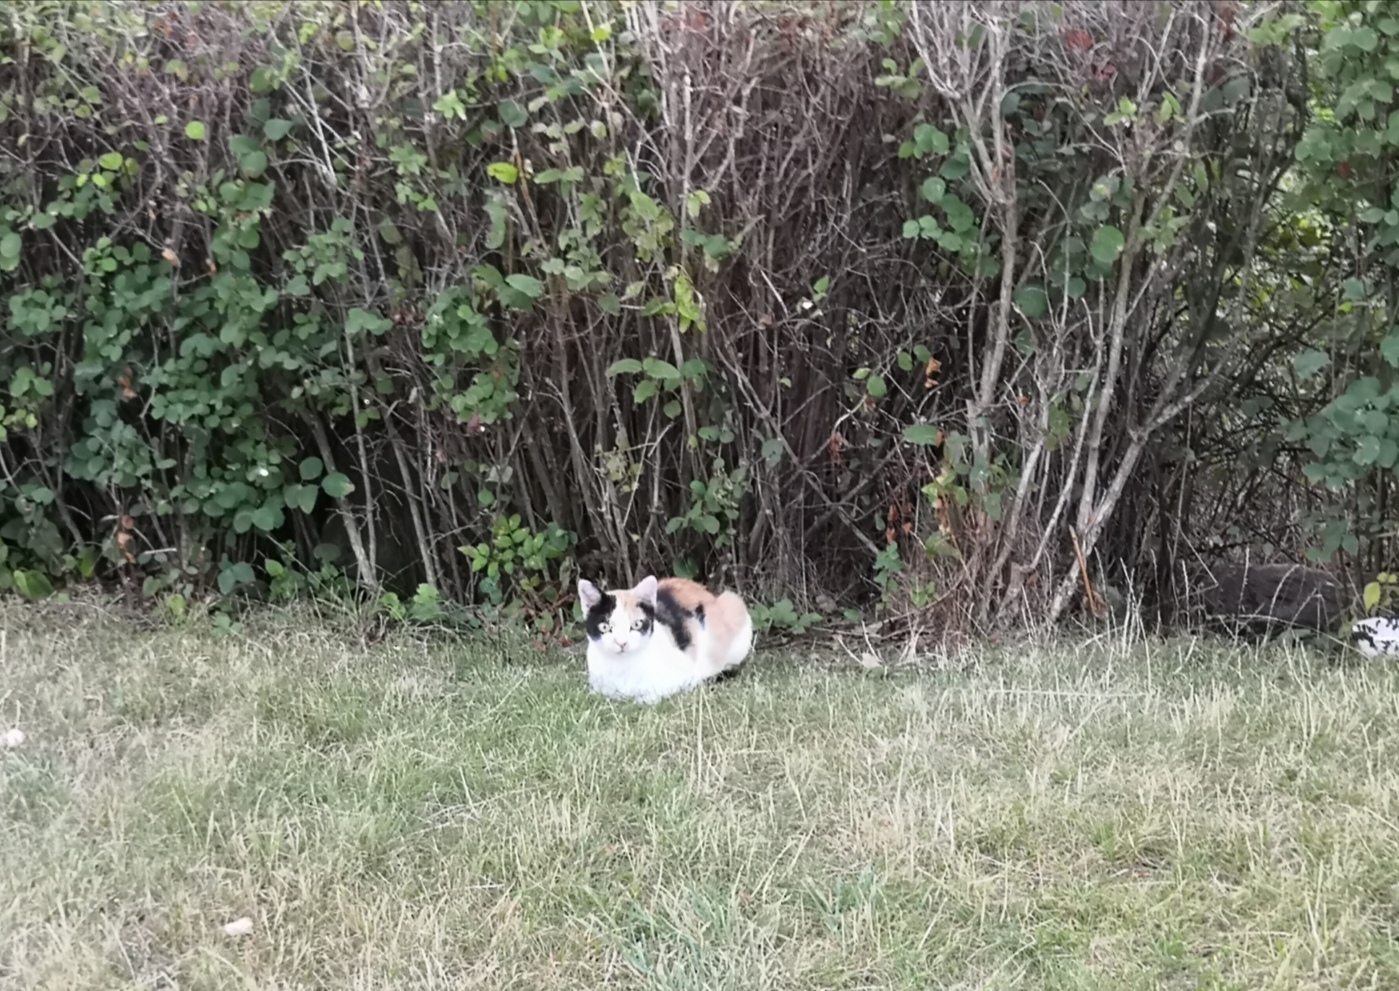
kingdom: Animalia
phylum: Chordata
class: Mammalia
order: Carnivora
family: Felidae
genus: Felis
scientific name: Felis catus
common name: Domestic cat
